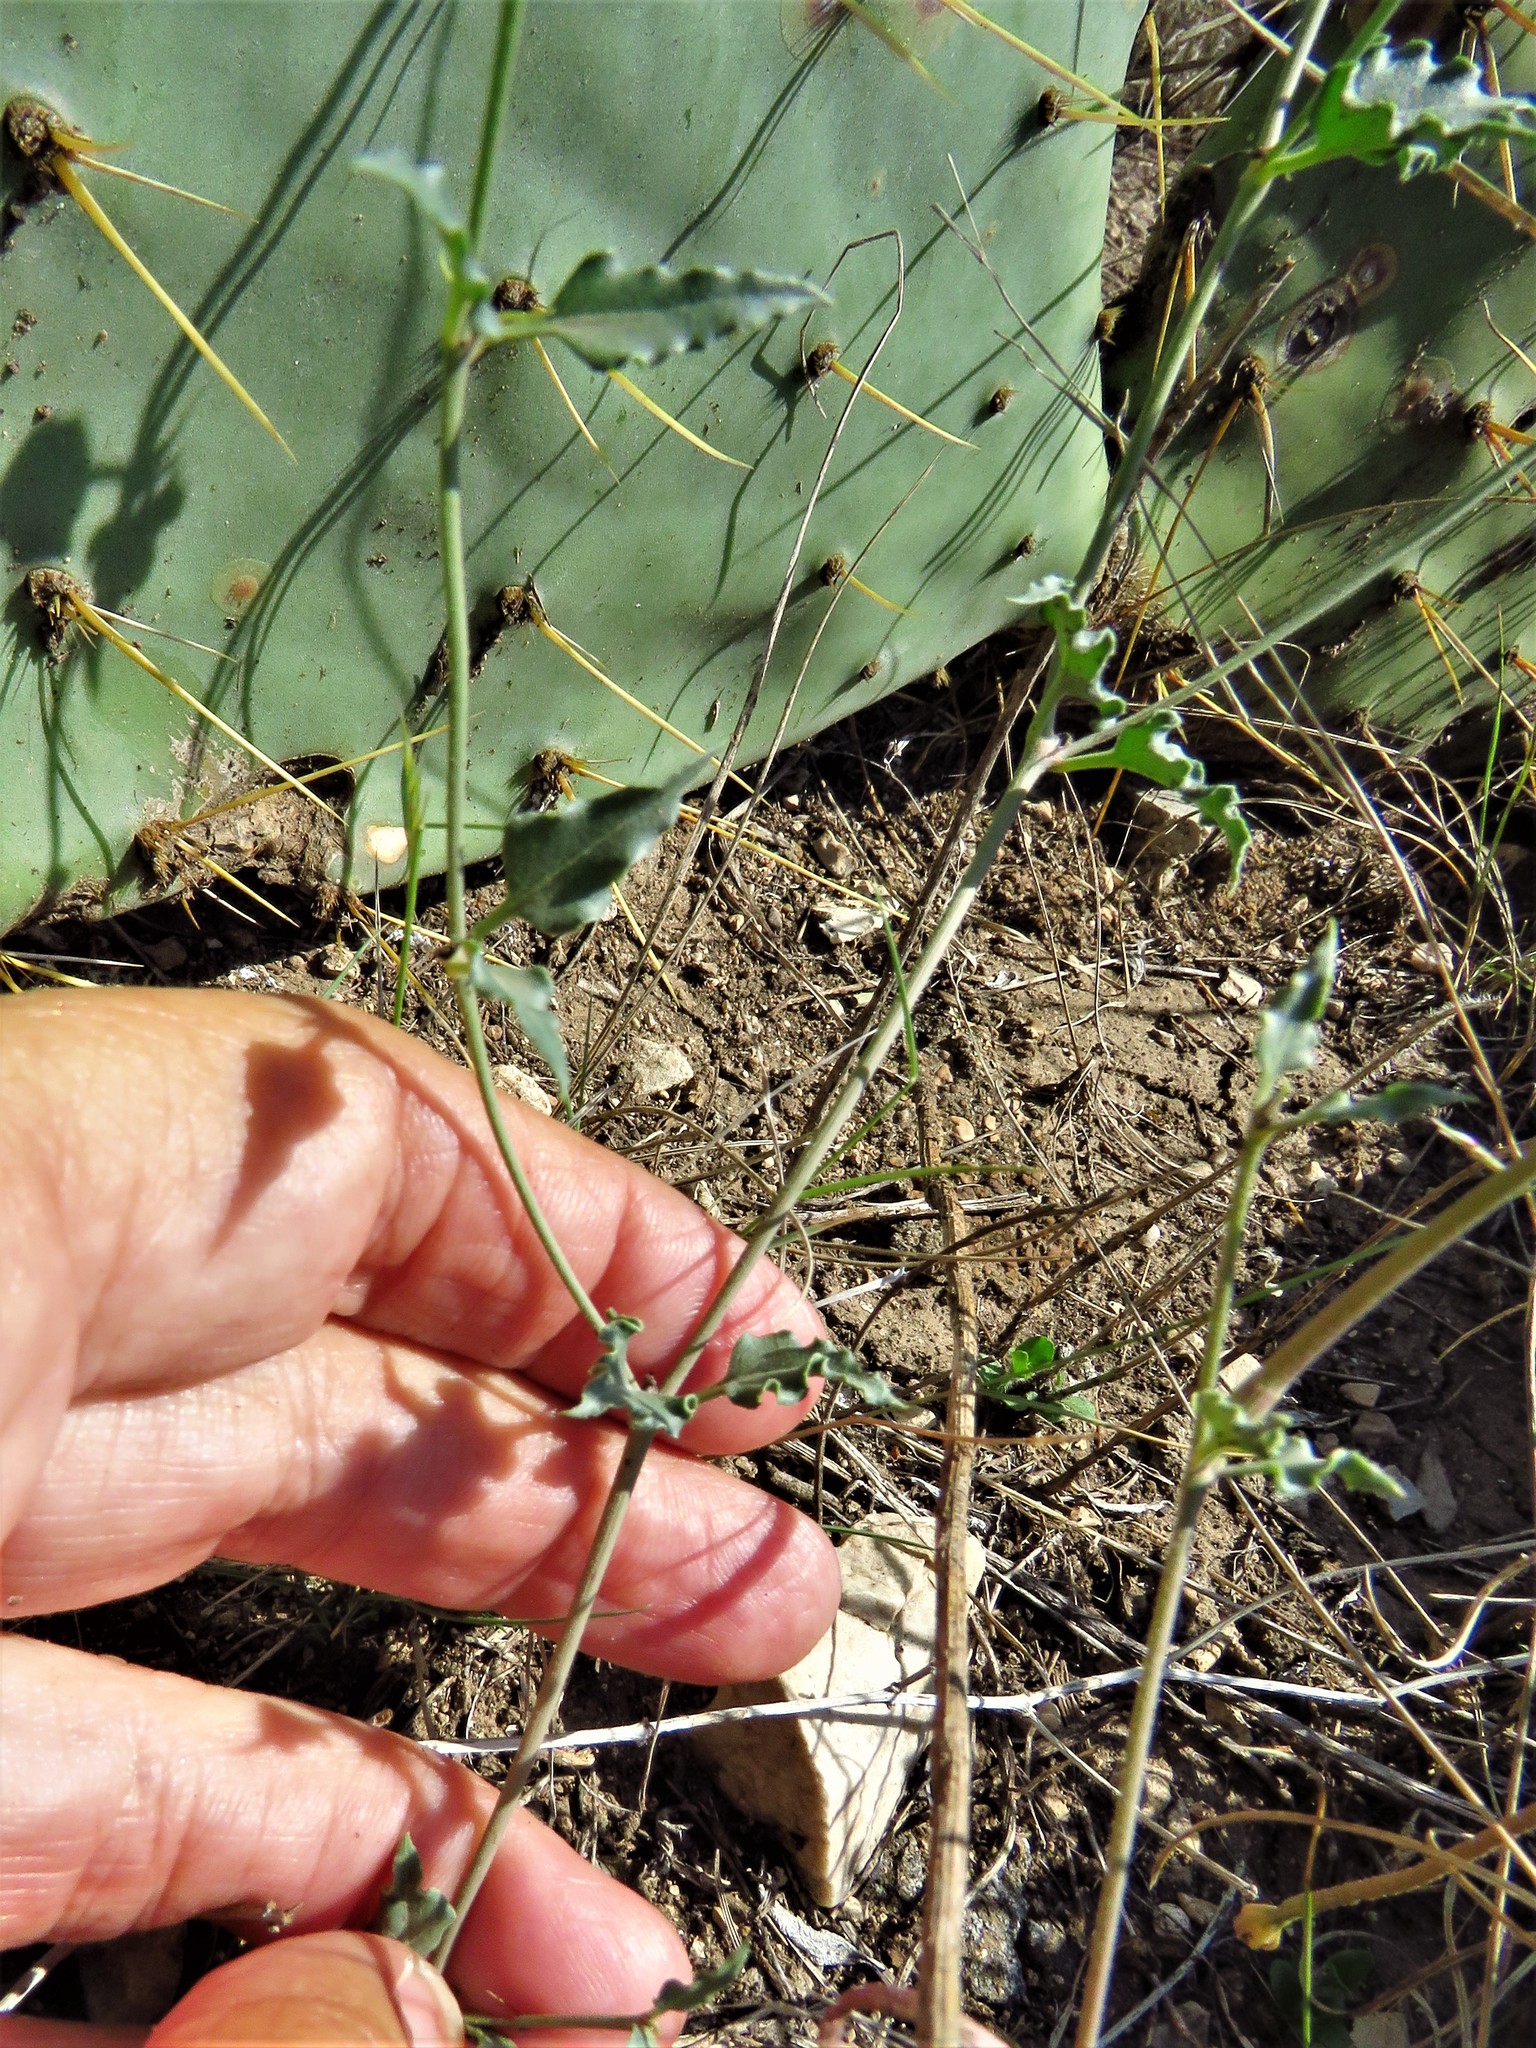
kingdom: Plantae
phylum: Tracheophyta
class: Magnoliopsida
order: Caryophyllales
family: Nyctaginaceae
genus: Acleisanthes
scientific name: Acleisanthes longiflora
